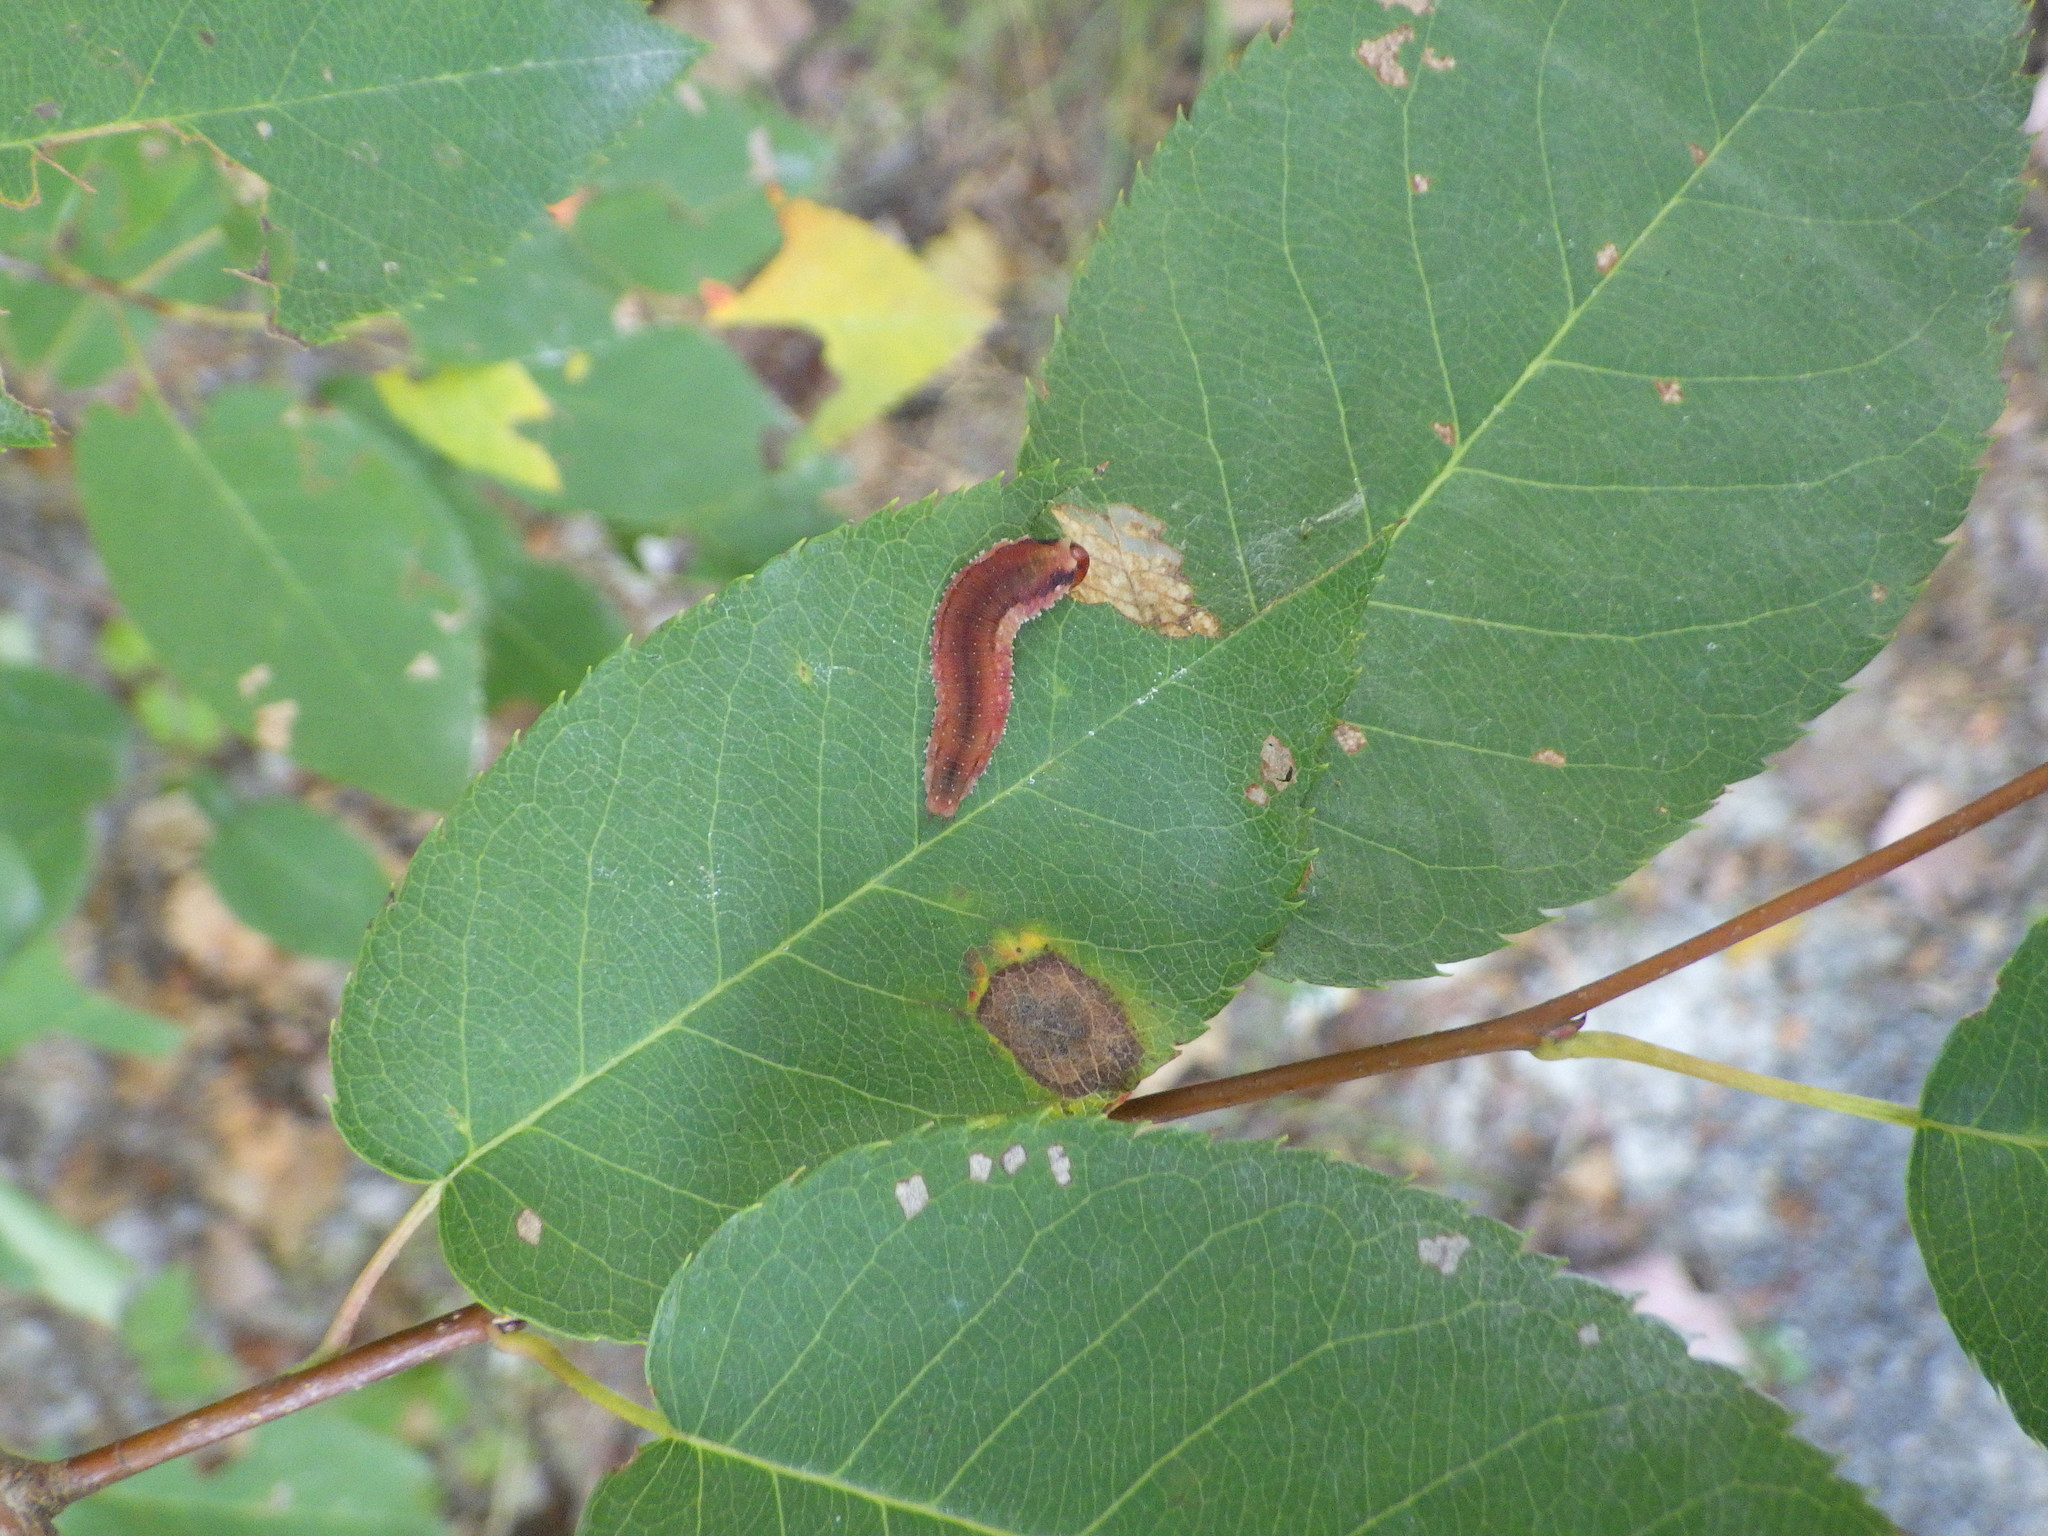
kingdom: Animalia
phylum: Arthropoda
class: Insecta
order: Hymenoptera
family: Tenthredinidae
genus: Dimorphopteryx
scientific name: Dimorphopteryx abnormis
